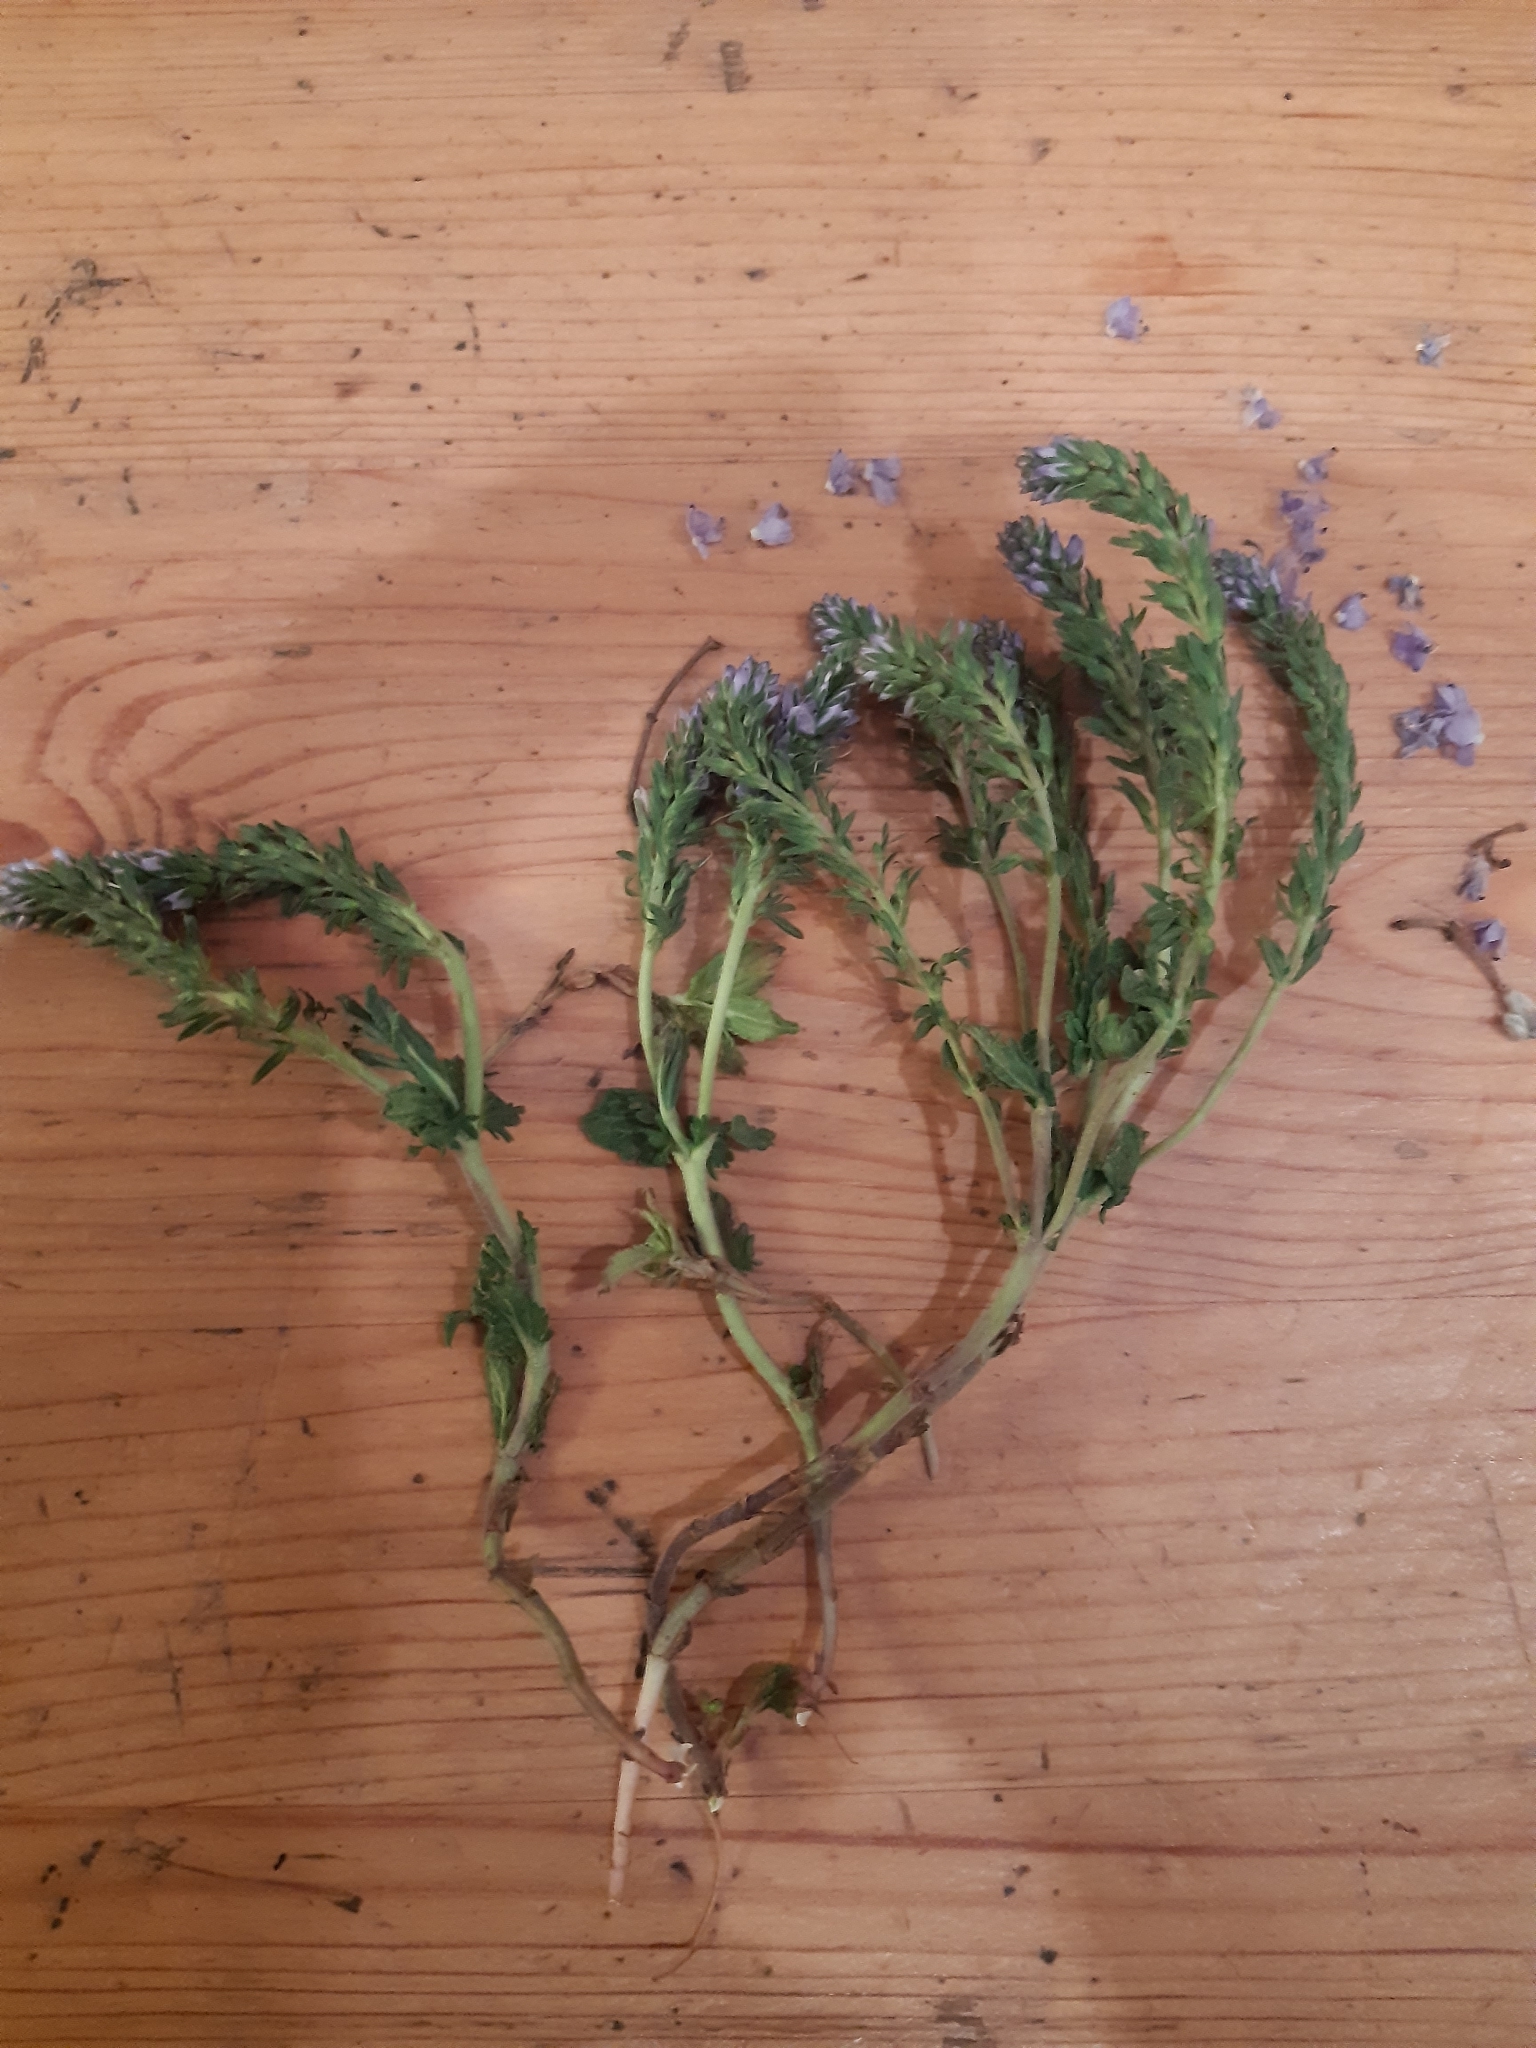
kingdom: Plantae
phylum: Tracheophyta
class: Magnoliopsida
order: Lamiales
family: Plantaginaceae
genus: Veronica
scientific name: Veronica prostrata
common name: Prostrate speedwell
